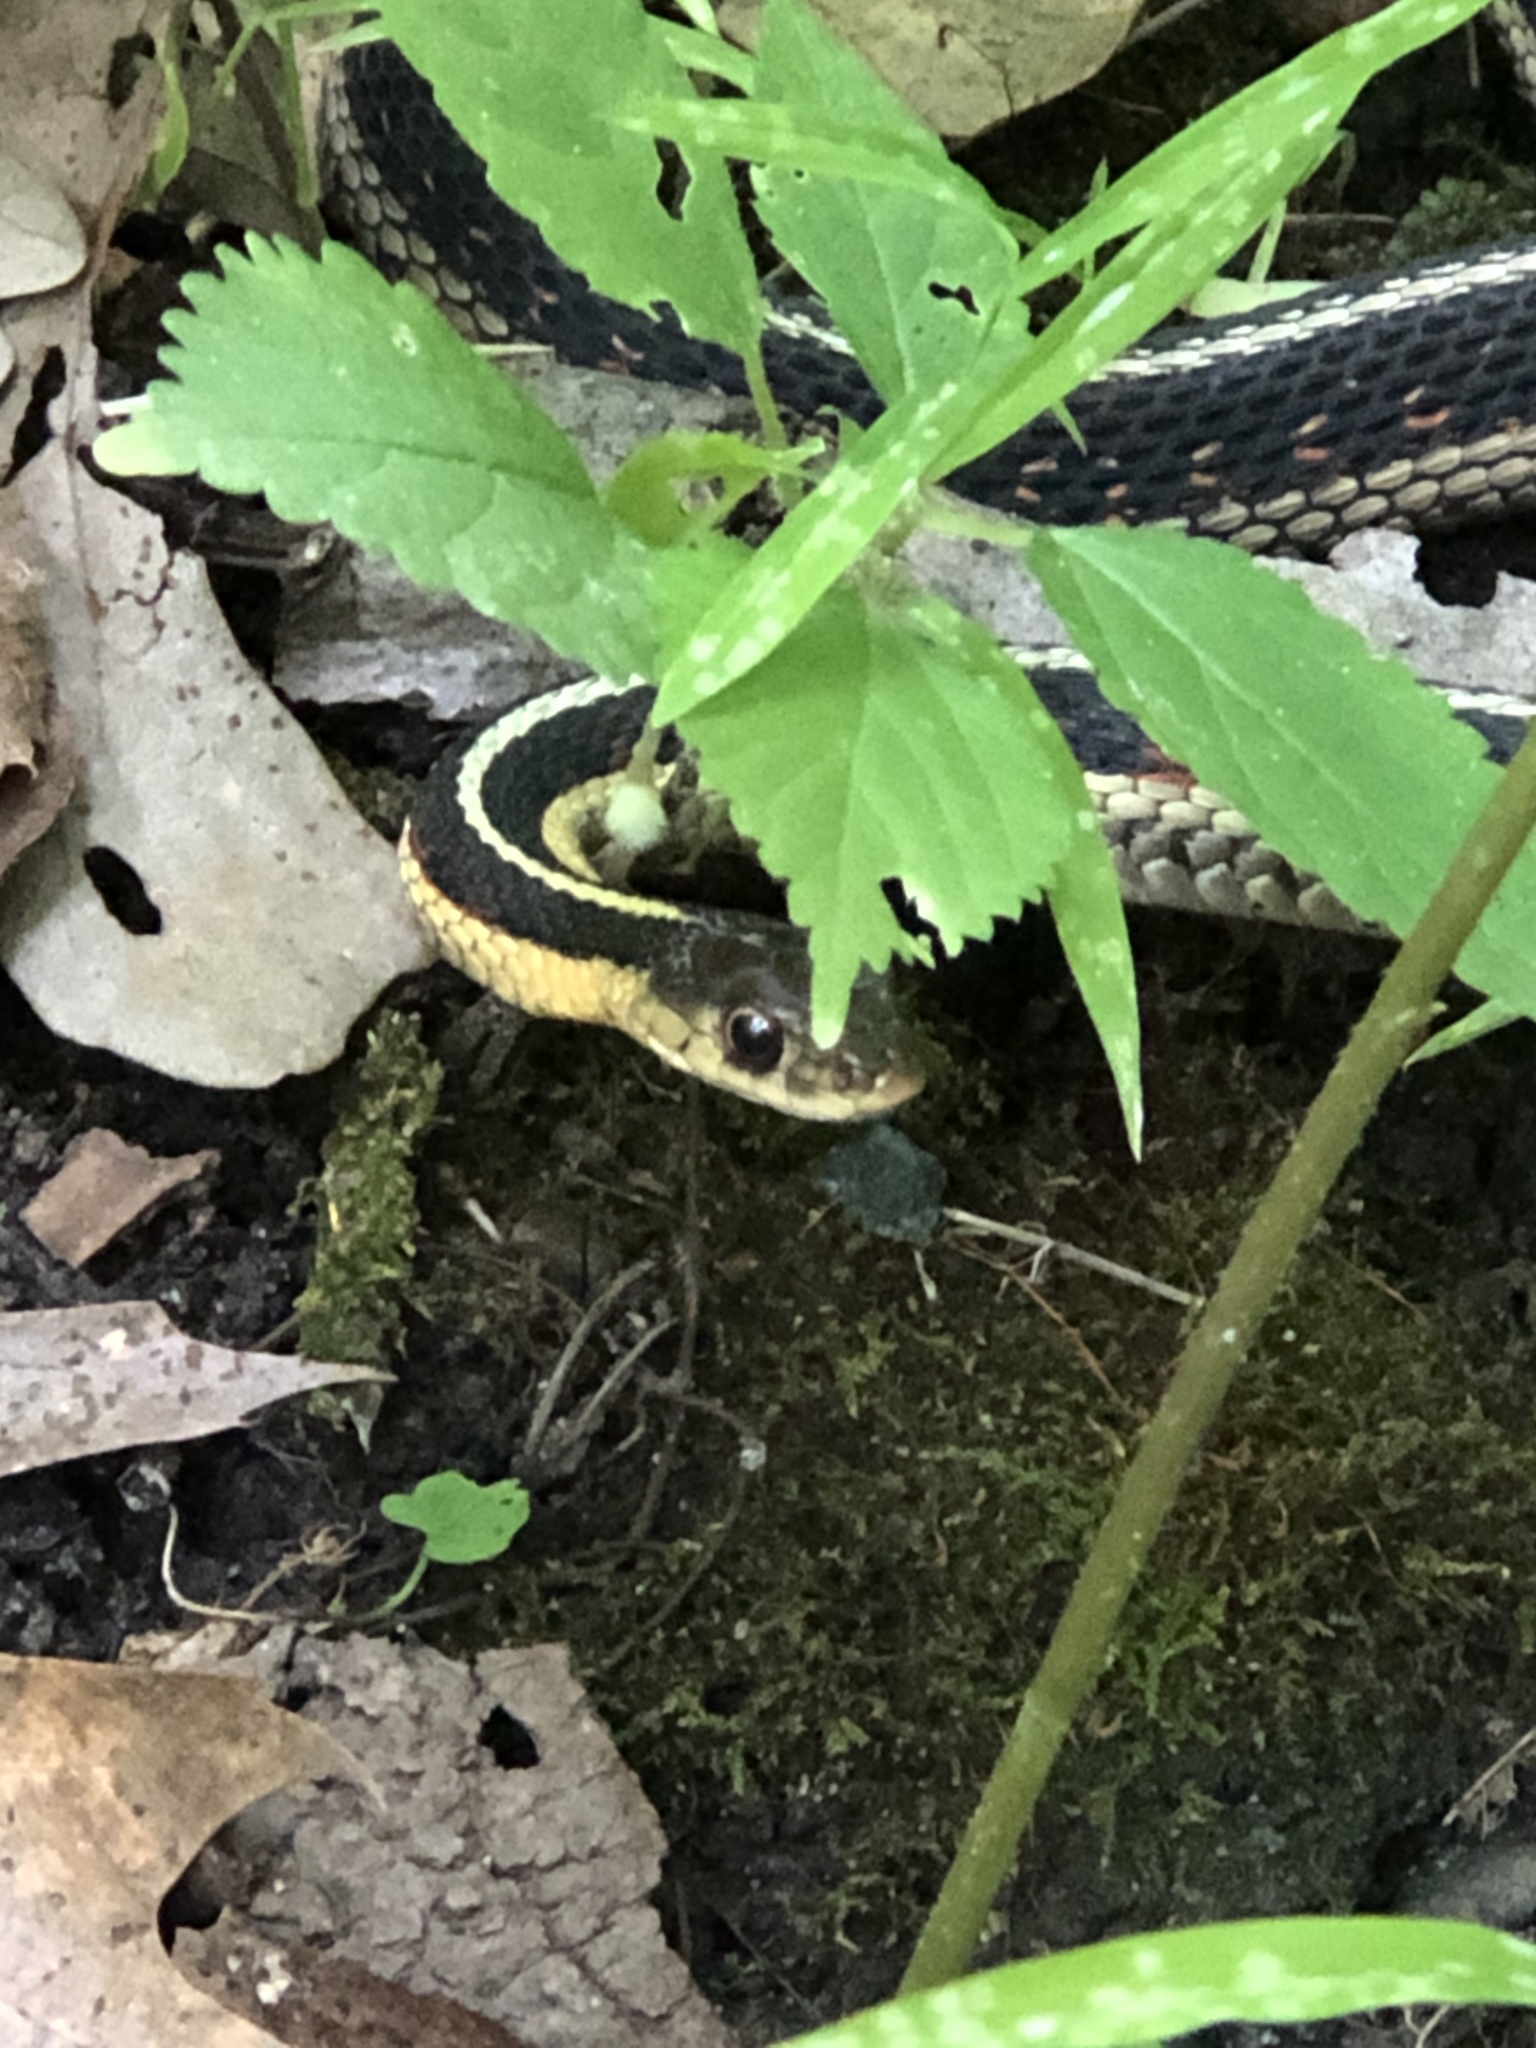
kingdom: Animalia
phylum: Chordata
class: Squamata
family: Colubridae
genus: Thamnophis
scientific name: Thamnophis sirtalis
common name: Common garter snake
